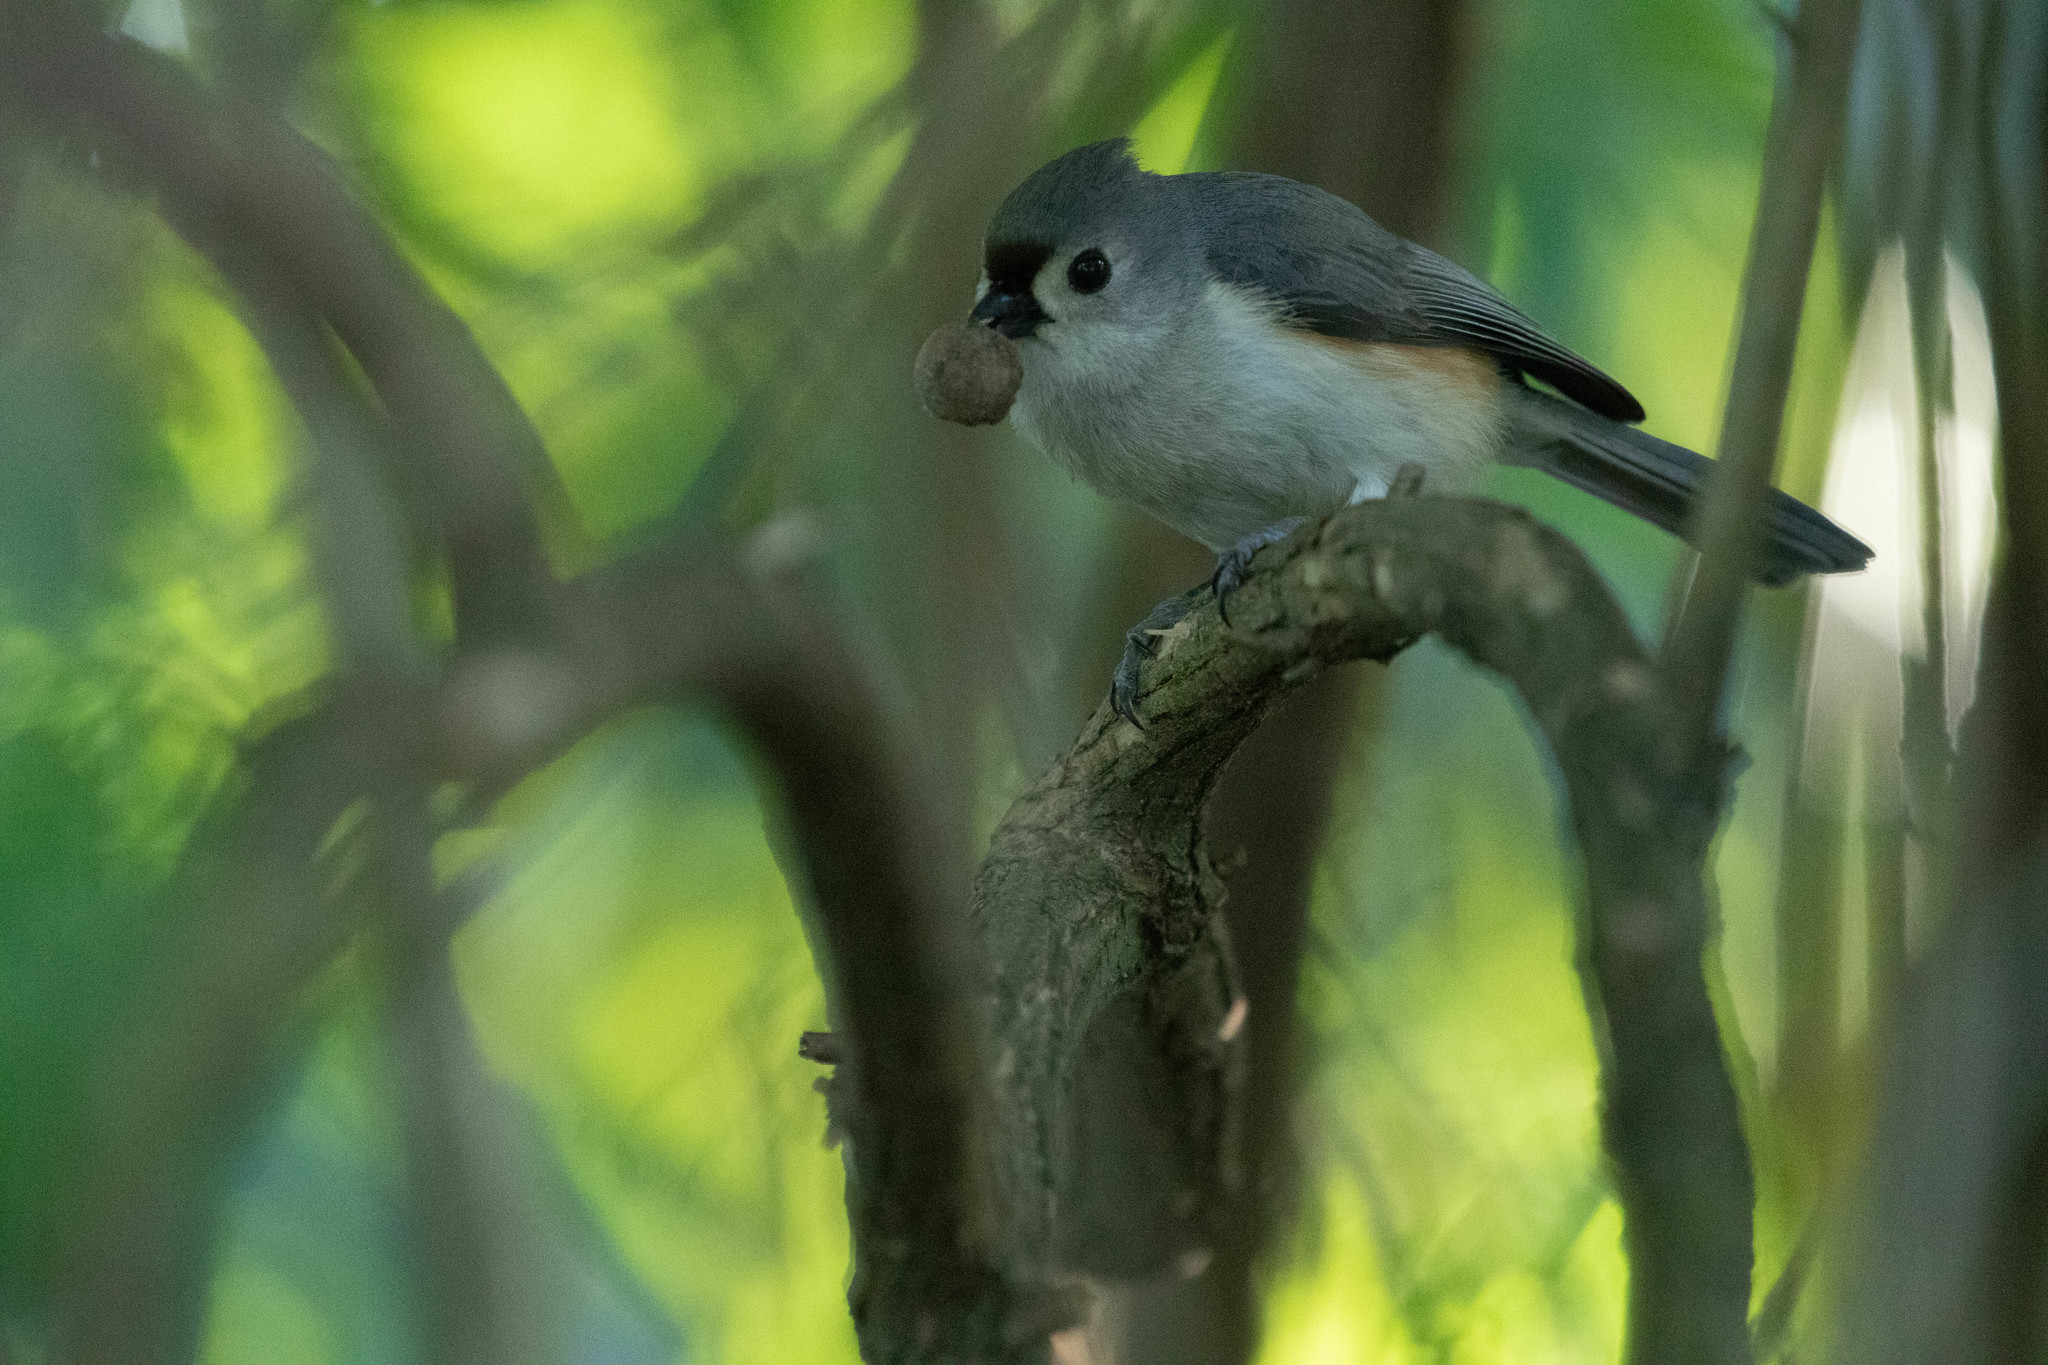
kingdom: Animalia
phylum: Chordata
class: Aves
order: Passeriformes
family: Paridae
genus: Baeolophus
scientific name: Baeolophus bicolor
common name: Tufted titmouse
